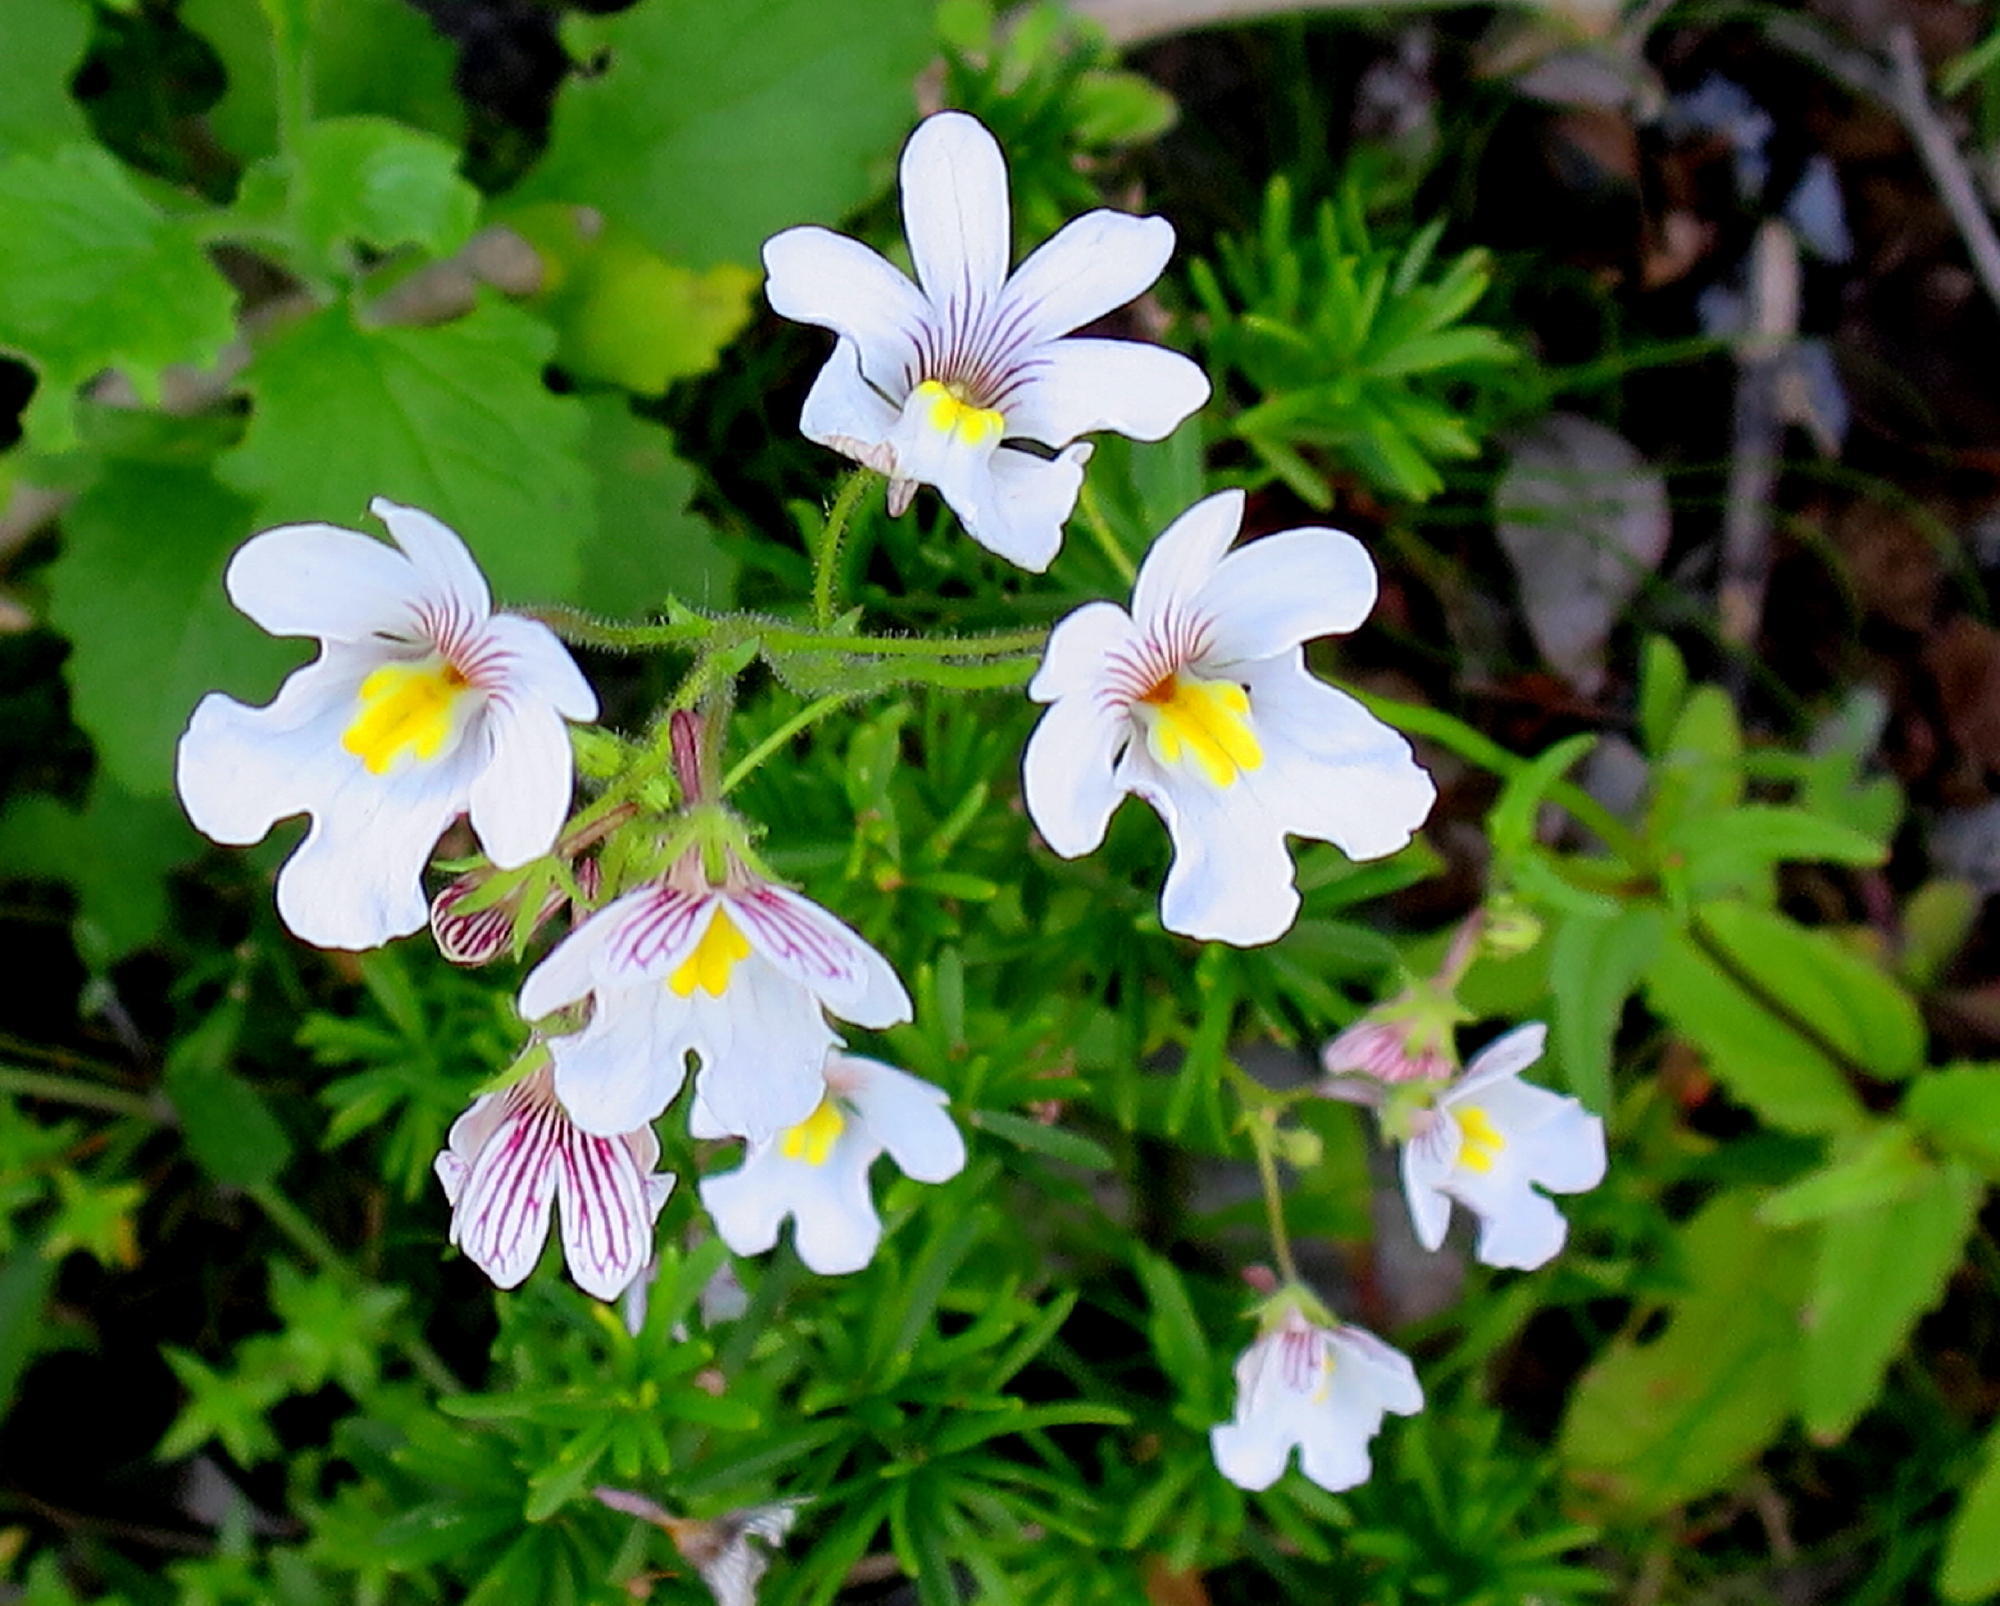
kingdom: Plantae
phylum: Tracheophyta
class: Magnoliopsida
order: Lamiales
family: Scrophulariaceae
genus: Nemesia
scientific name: Nemesia affinis
